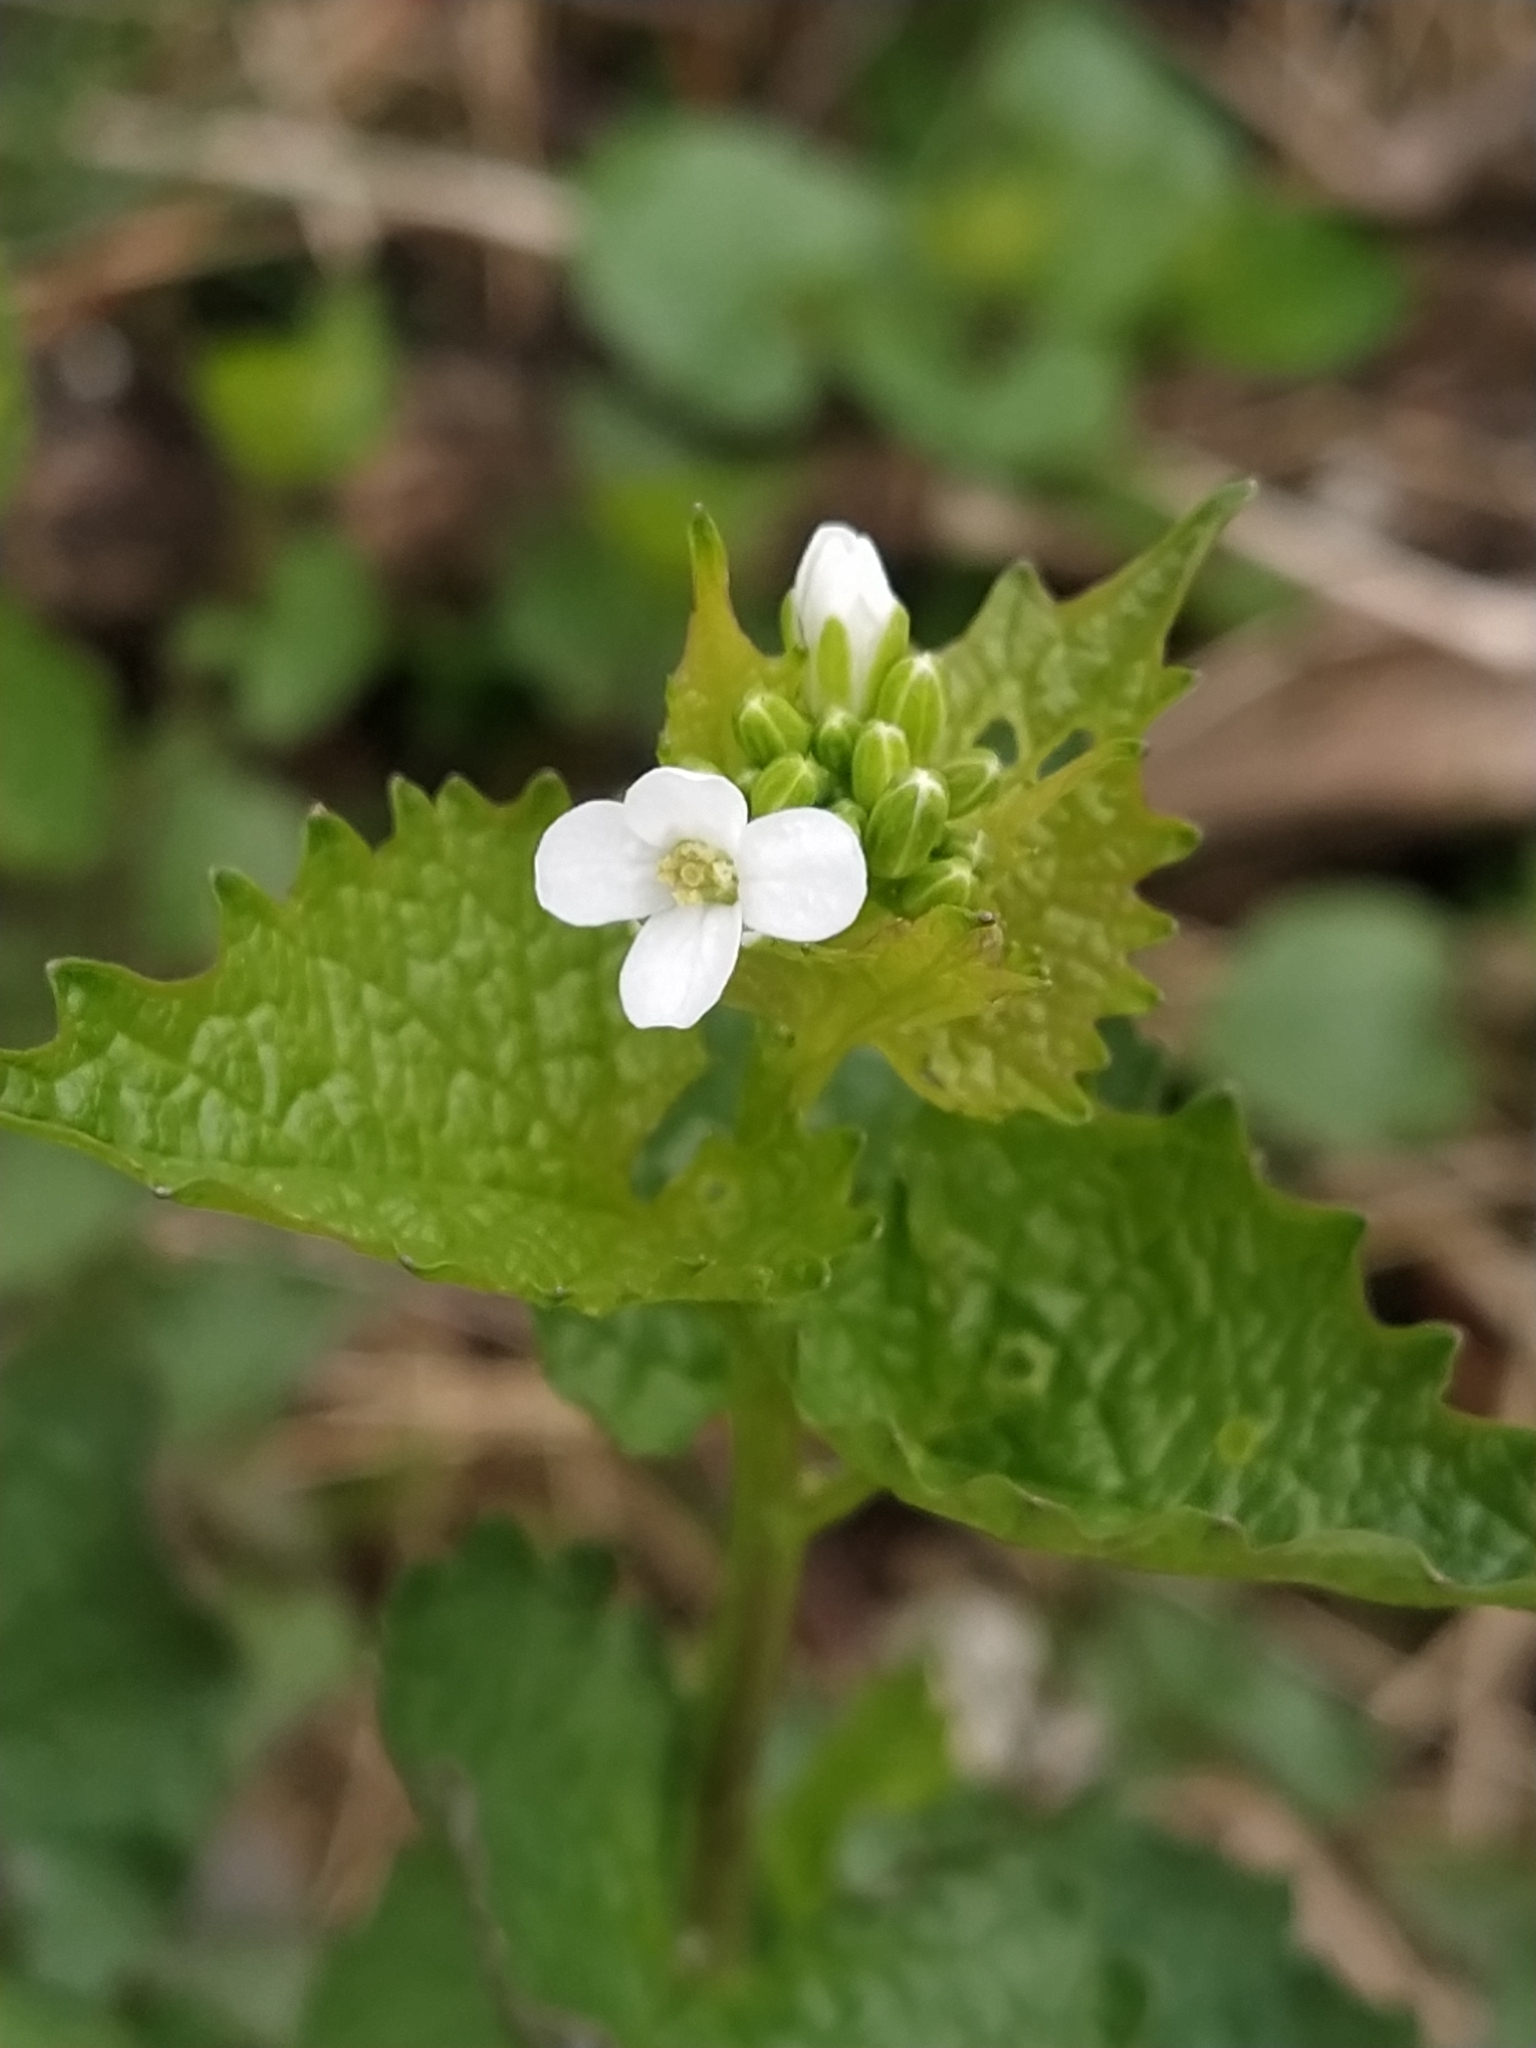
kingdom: Plantae
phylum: Tracheophyta
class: Magnoliopsida
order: Brassicales
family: Brassicaceae
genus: Alliaria
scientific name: Alliaria petiolata
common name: Garlic mustard
